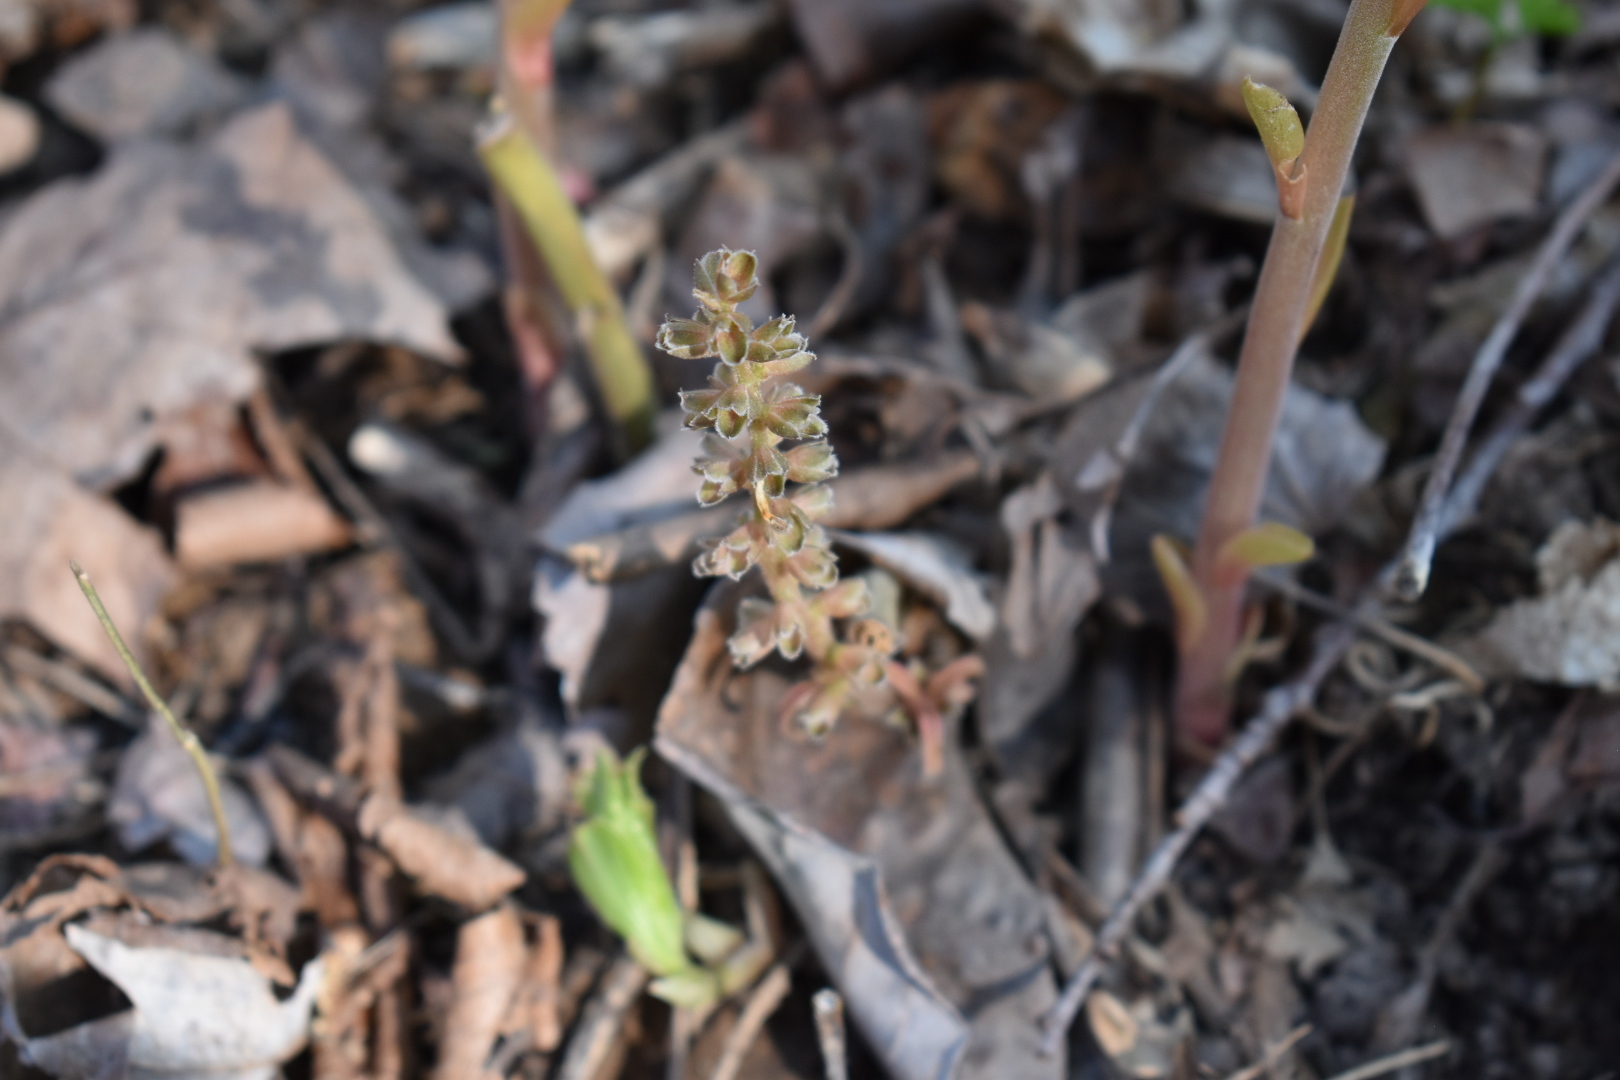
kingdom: Plantae
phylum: Tracheophyta
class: Magnoliopsida
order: Buxales
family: Buxaceae
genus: Pachysandra
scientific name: Pachysandra procumbens
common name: Mountain-spurge
